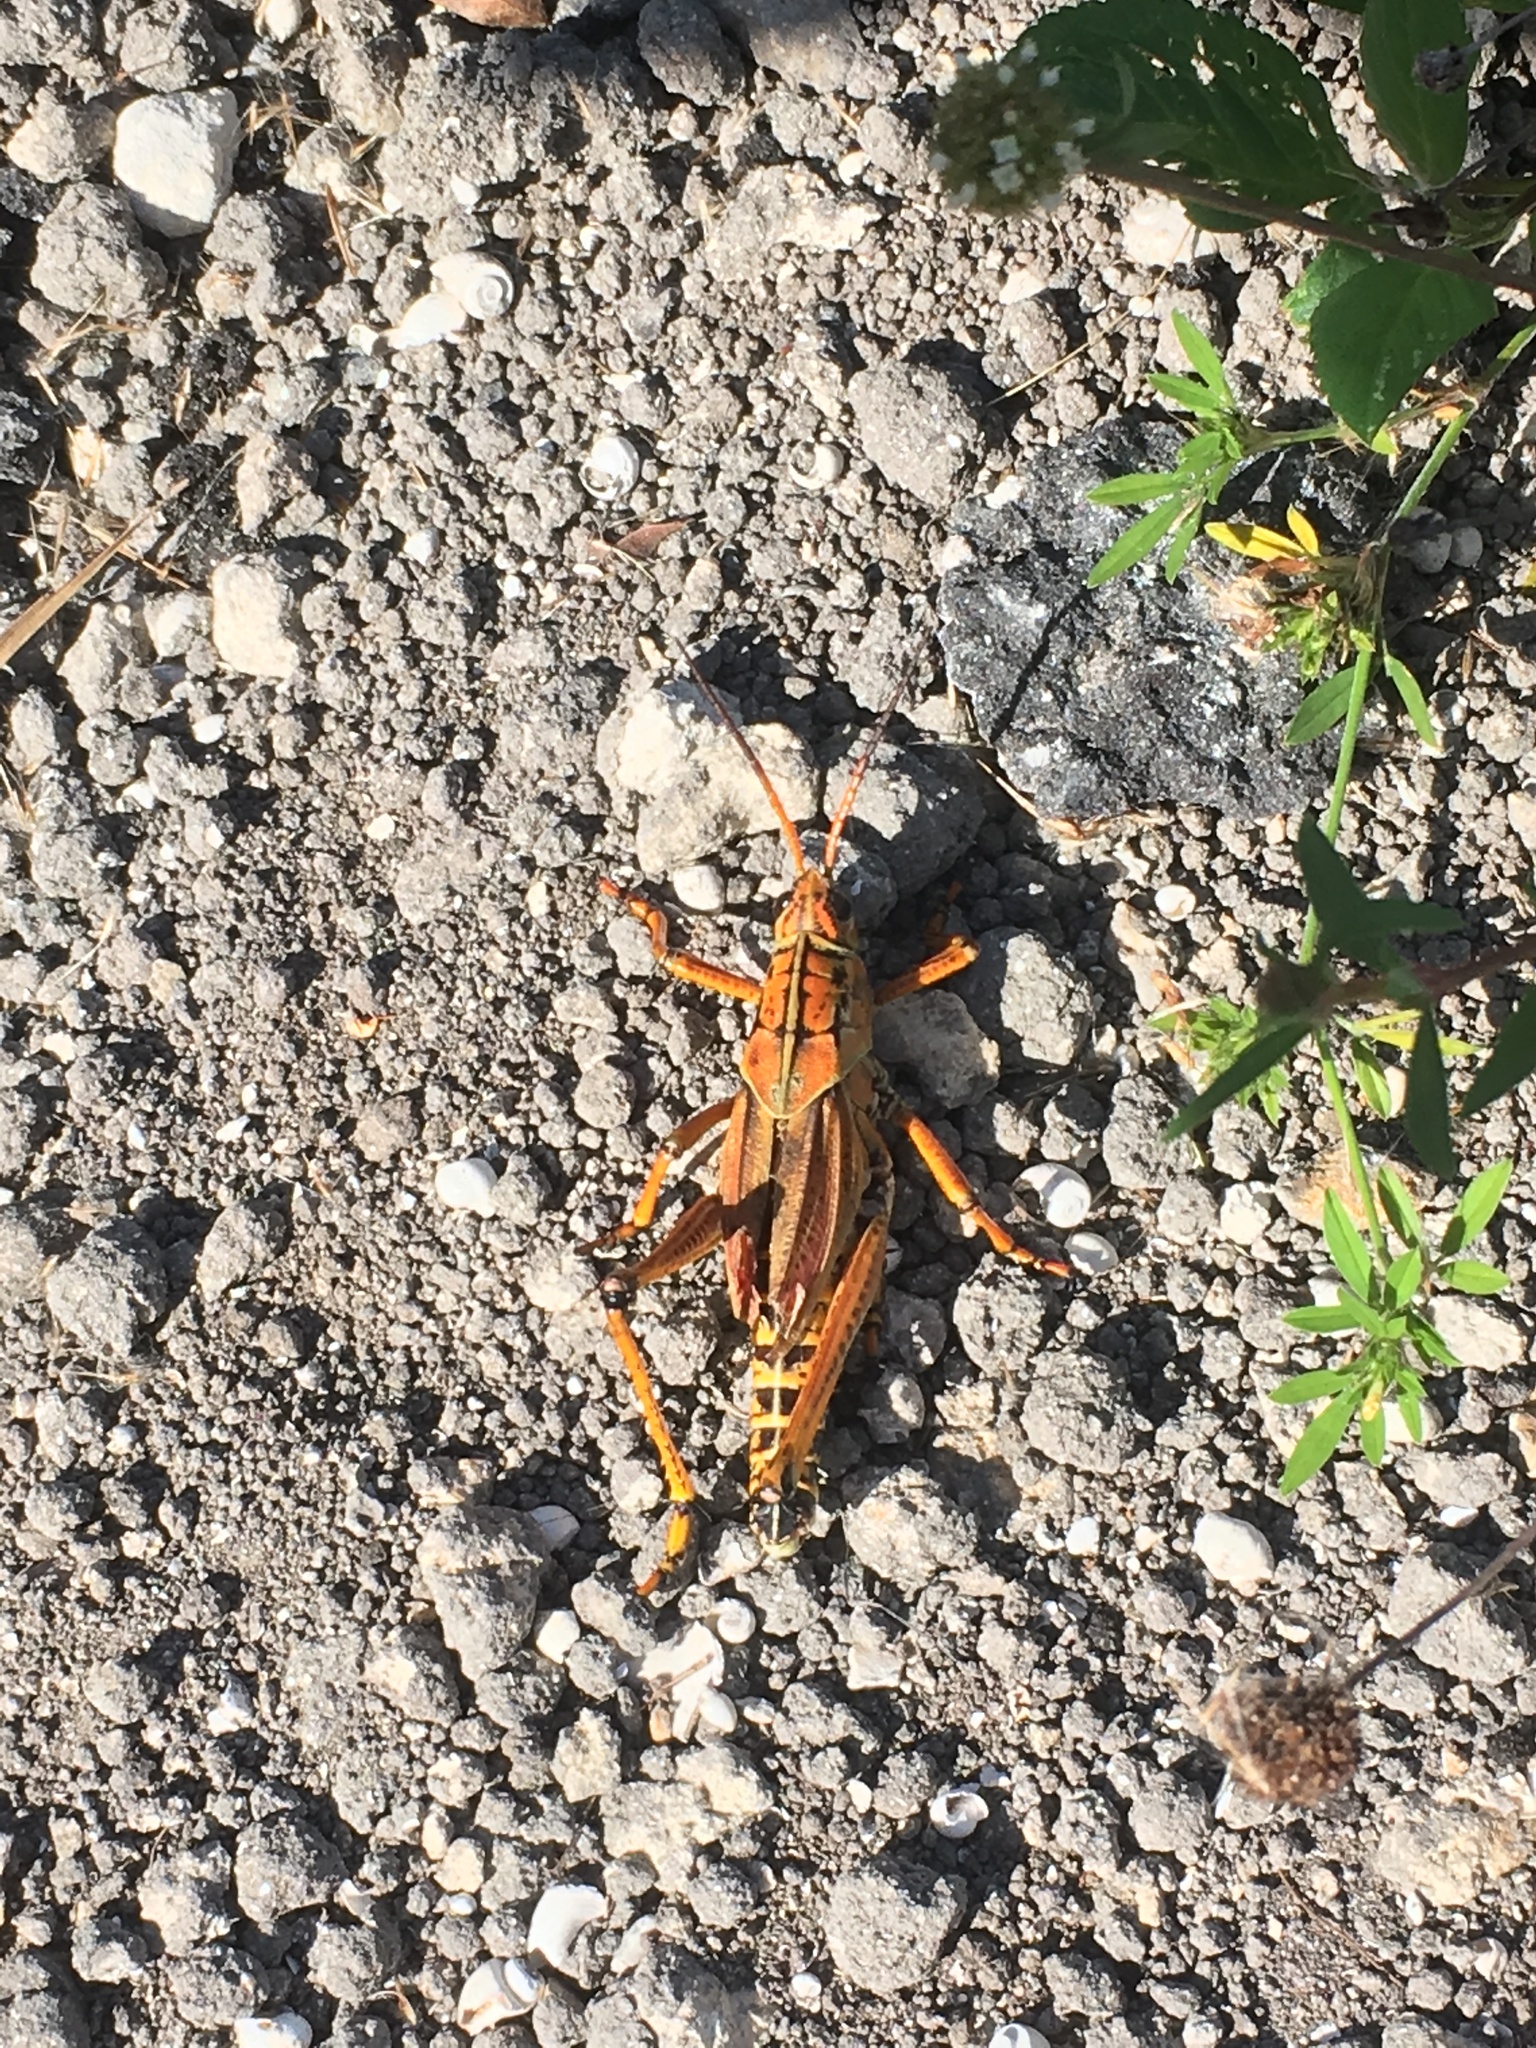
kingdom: Animalia
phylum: Arthropoda
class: Insecta
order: Orthoptera
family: Romaleidae
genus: Romalea
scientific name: Romalea microptera
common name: Eastern lubber grasshopper
